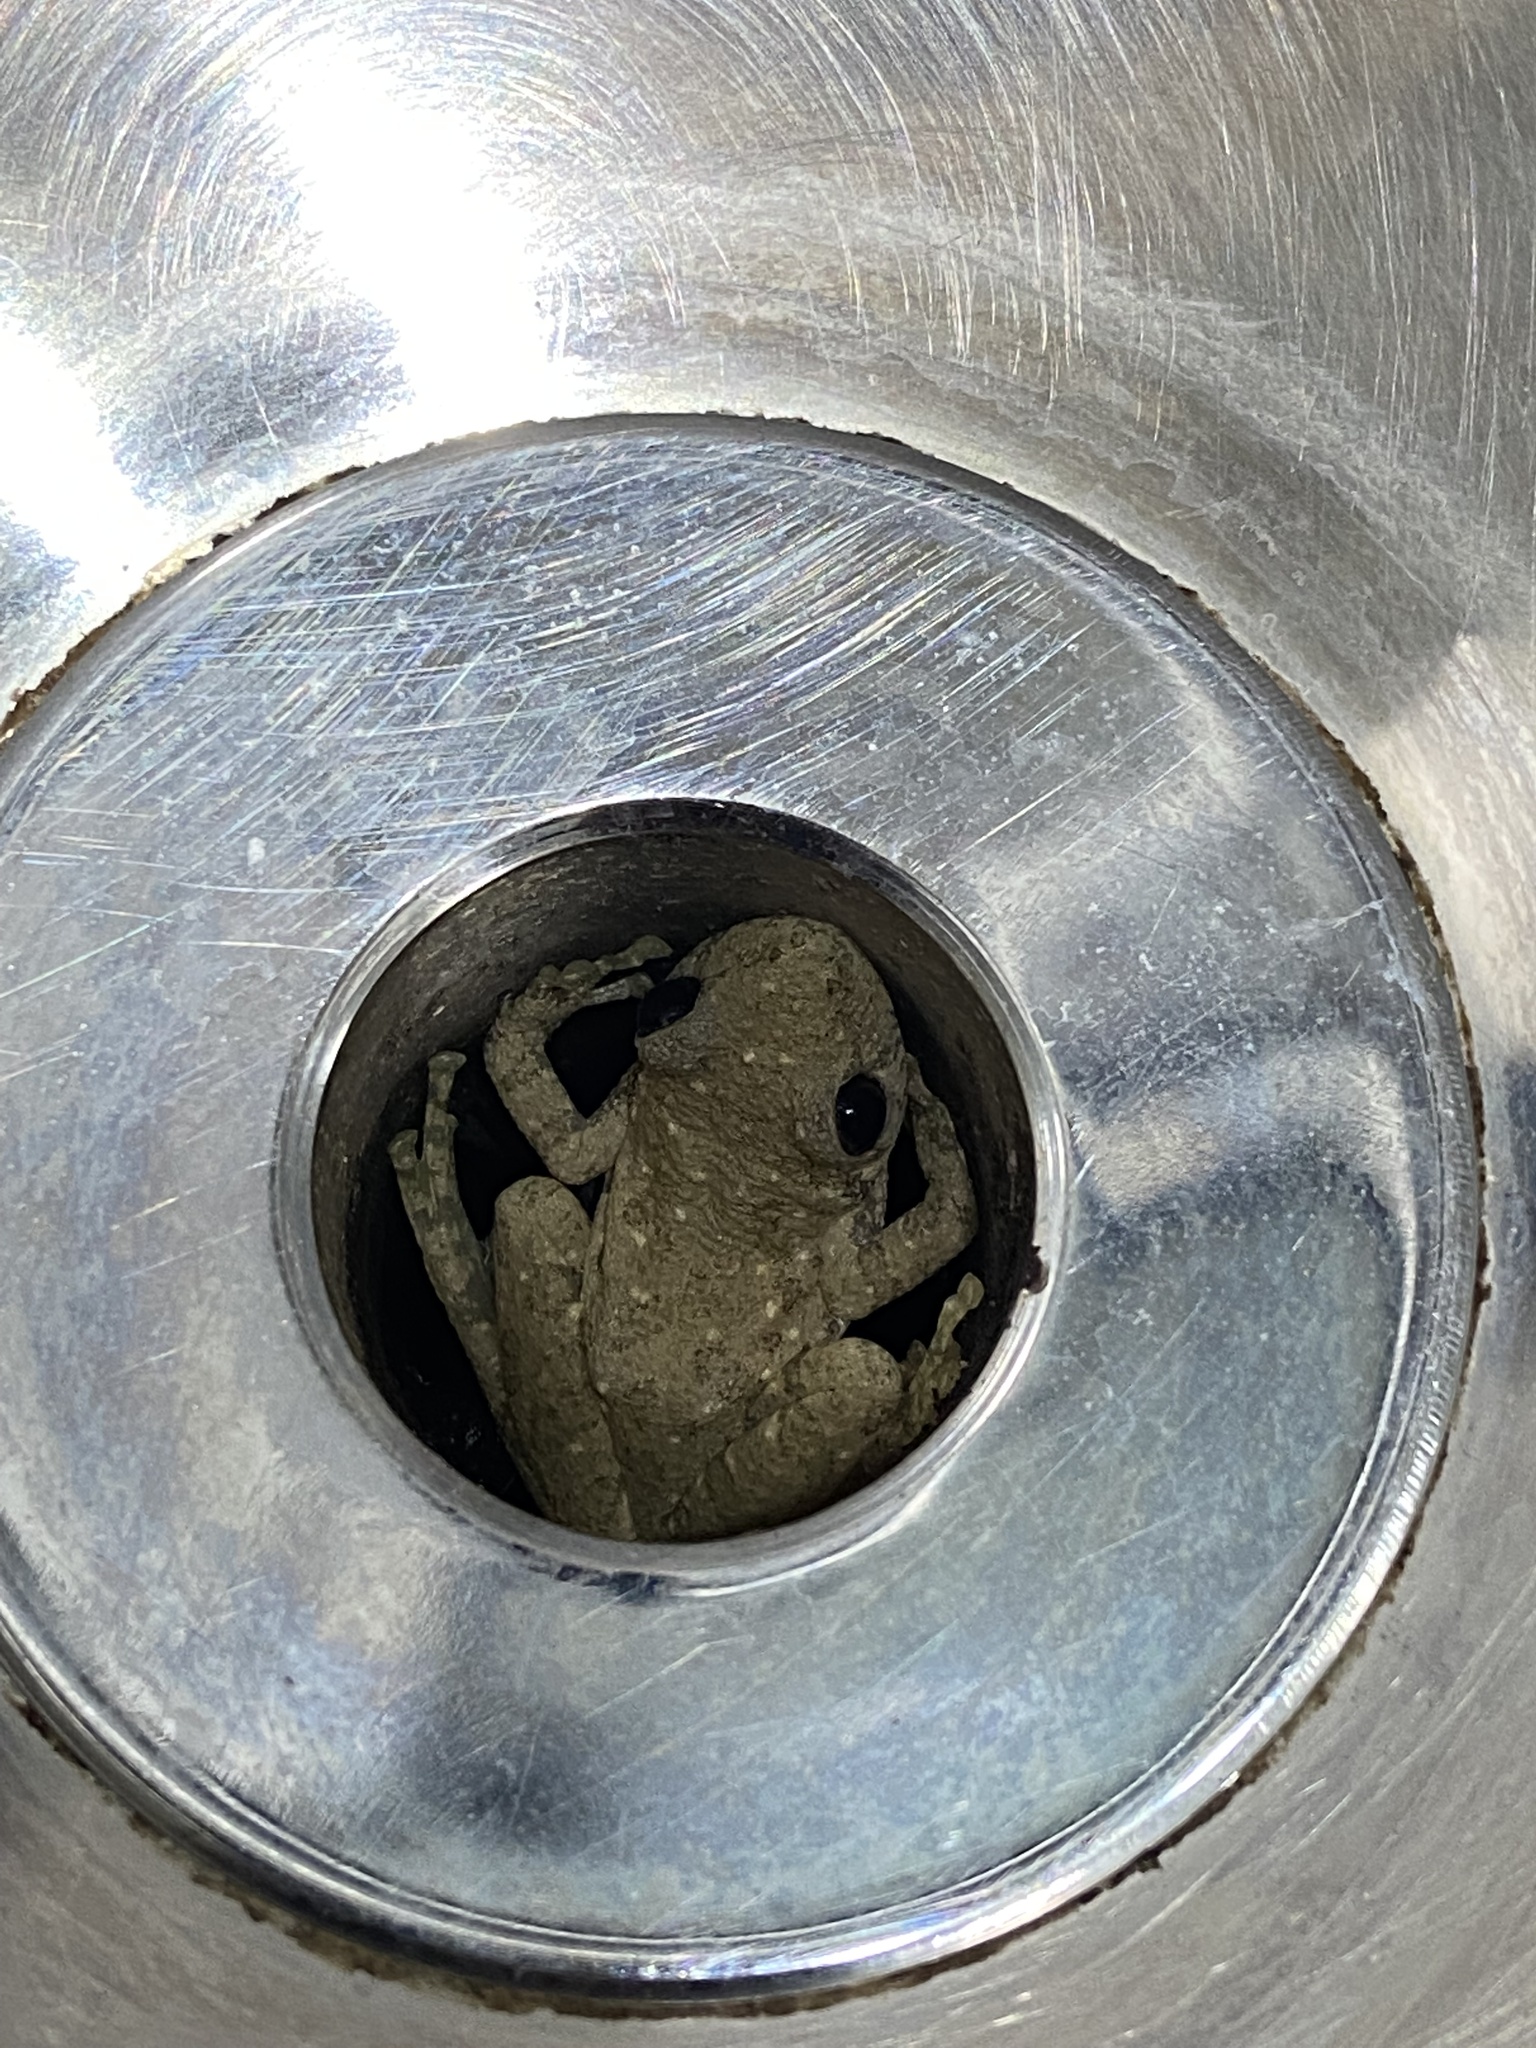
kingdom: Animalia
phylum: Chordata
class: Amphibia
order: Anura
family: Hylidae
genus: Scinax
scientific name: Scinax granulatus
